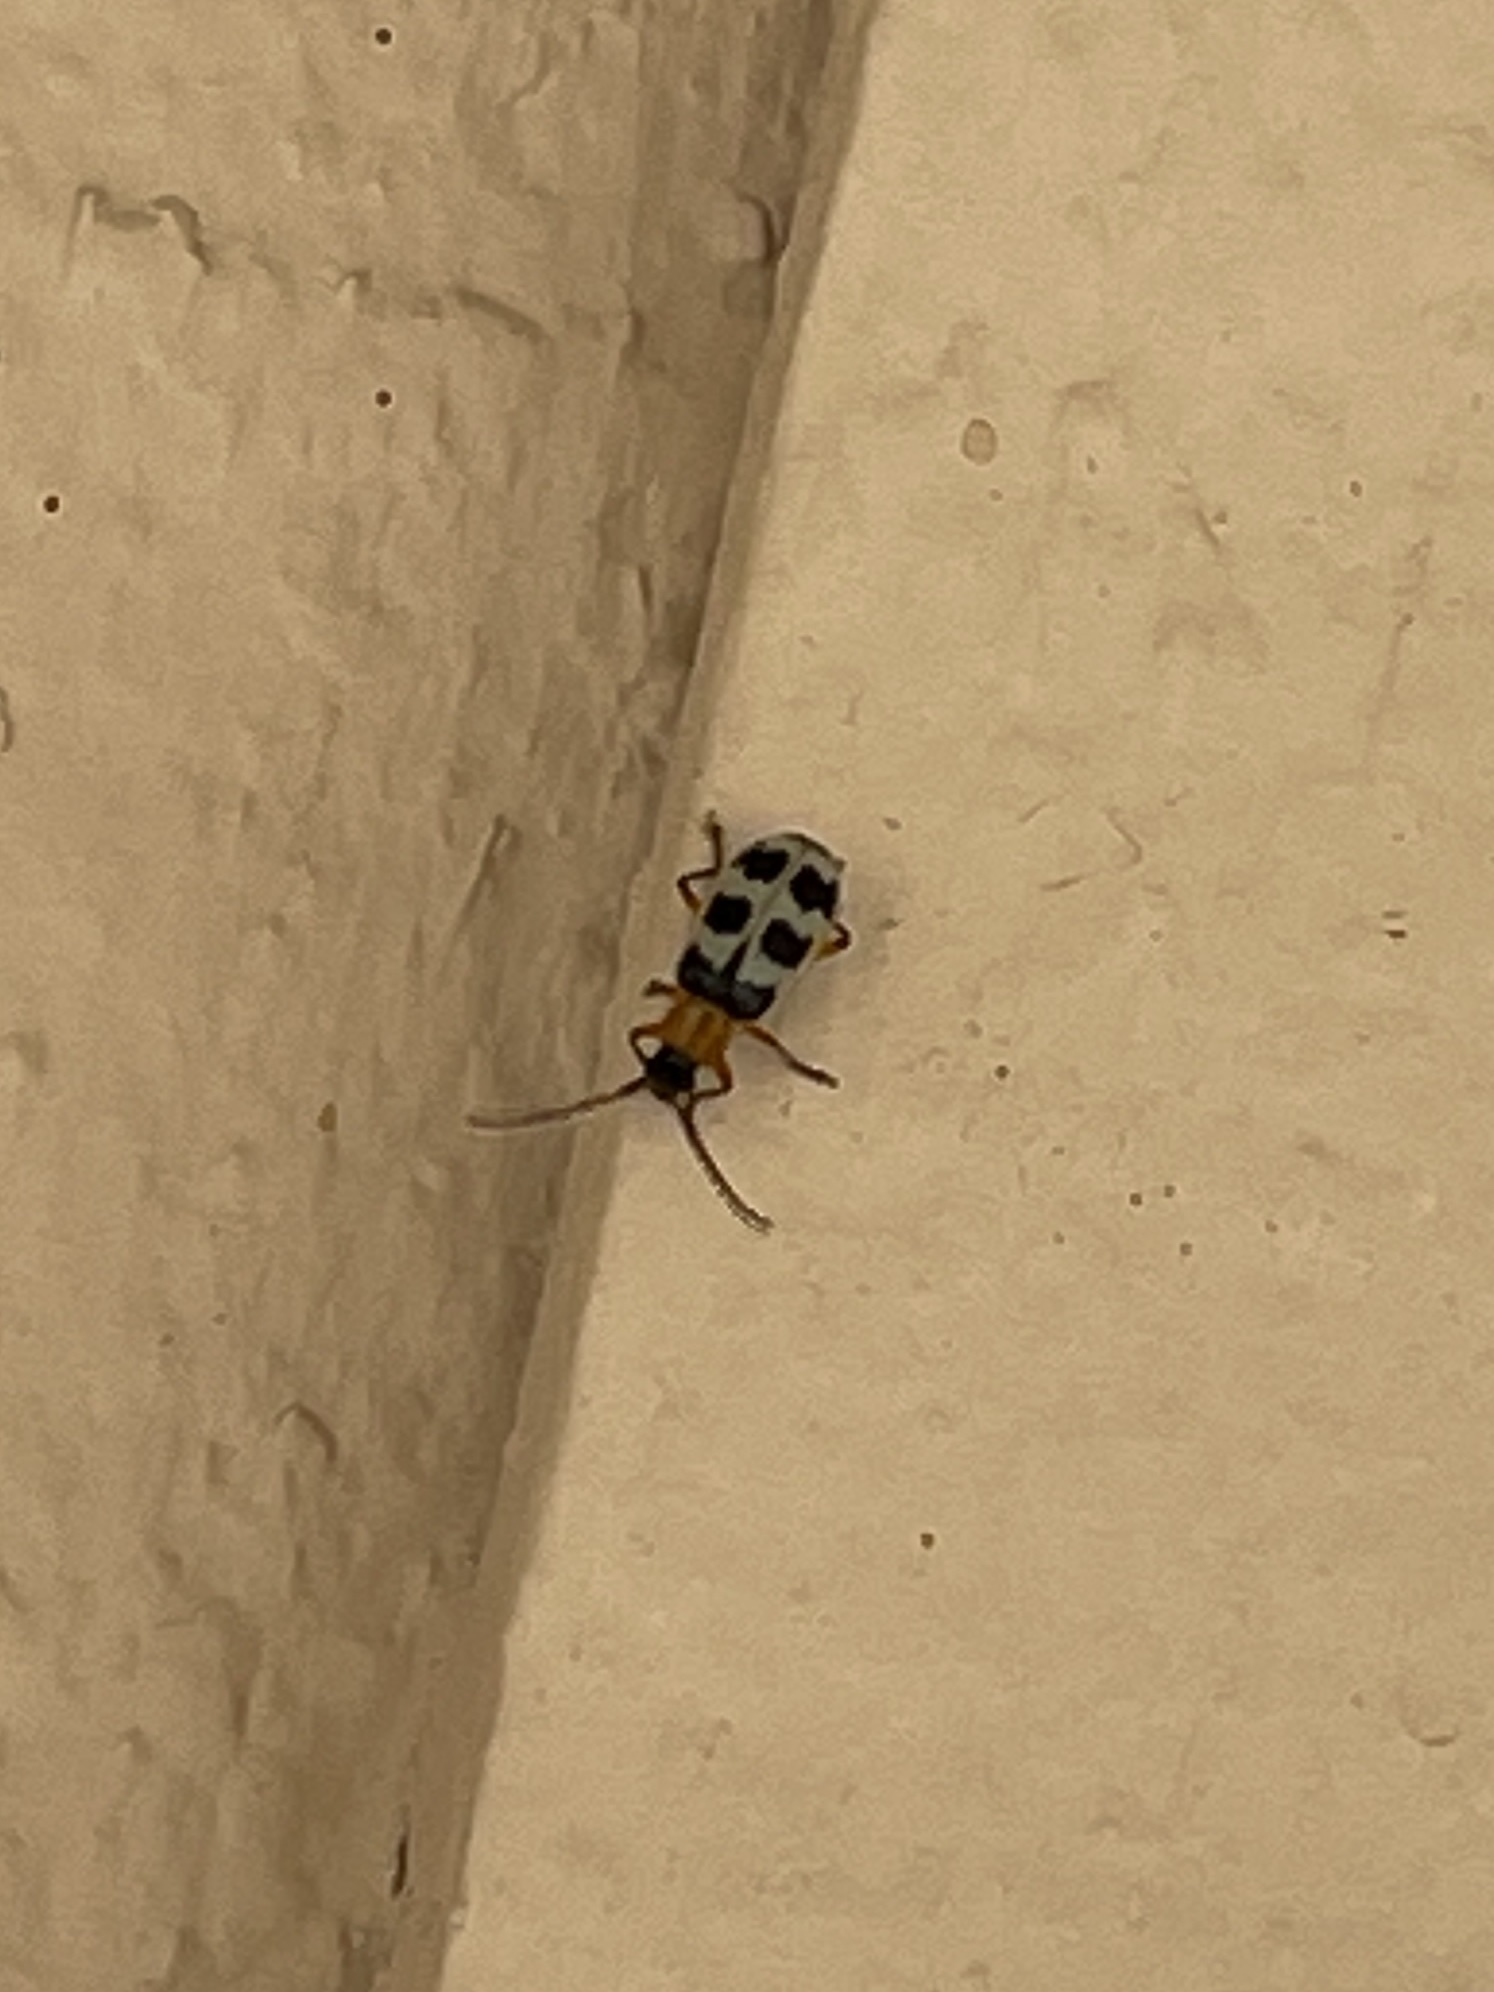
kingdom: Animalia
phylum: Arthropoda
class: Insecta
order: Coleoptera
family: Chrysomelidae
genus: Paranapiacaba
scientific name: Paranapiacaba tricincta
